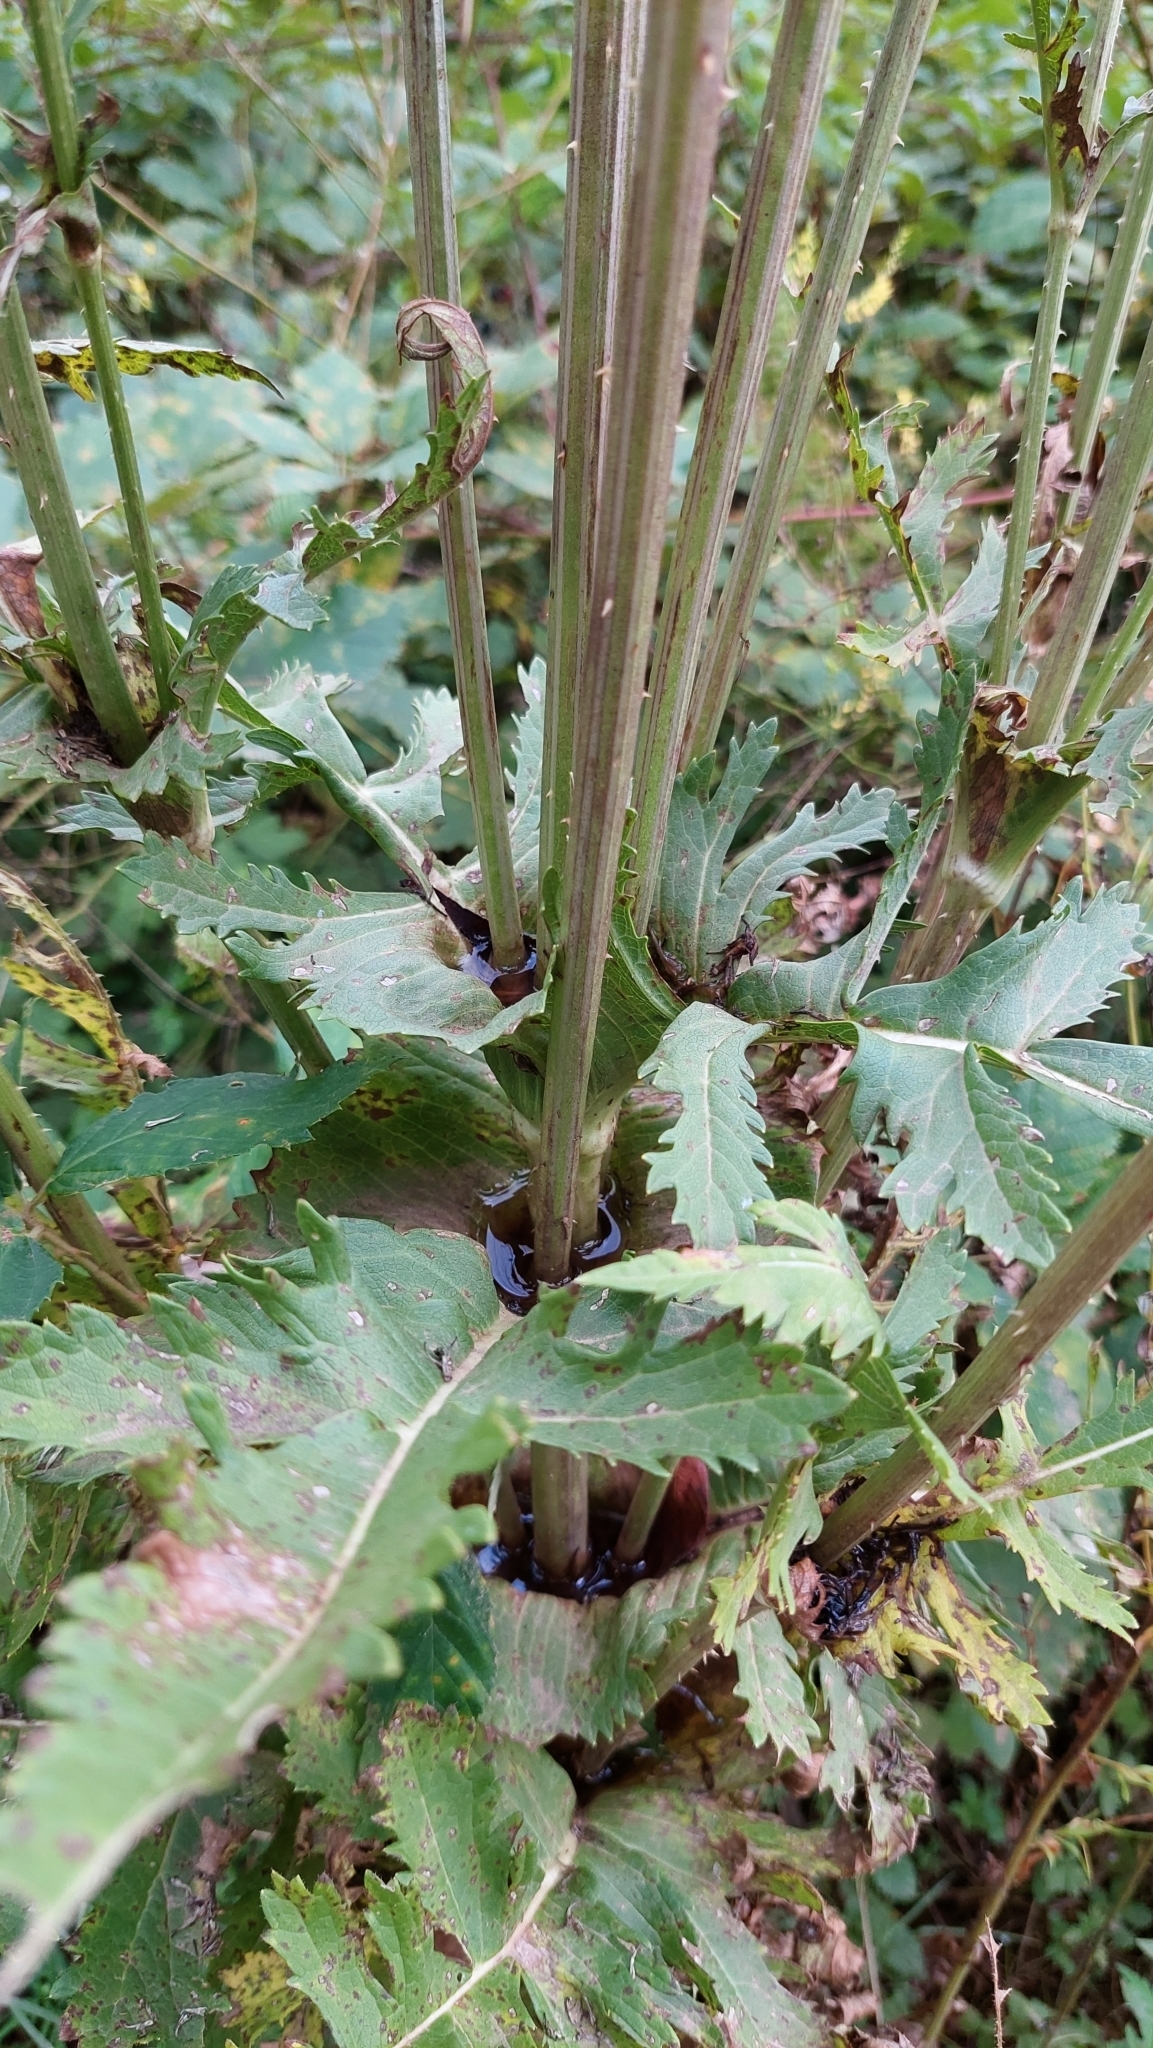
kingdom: Plantae
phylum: Tracheophyta
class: Magnoliopsida
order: Dipsacales
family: Caprifoliaceae
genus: Dipsacus
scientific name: Dipsacus laciniatus
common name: Cut-leaved teasel
